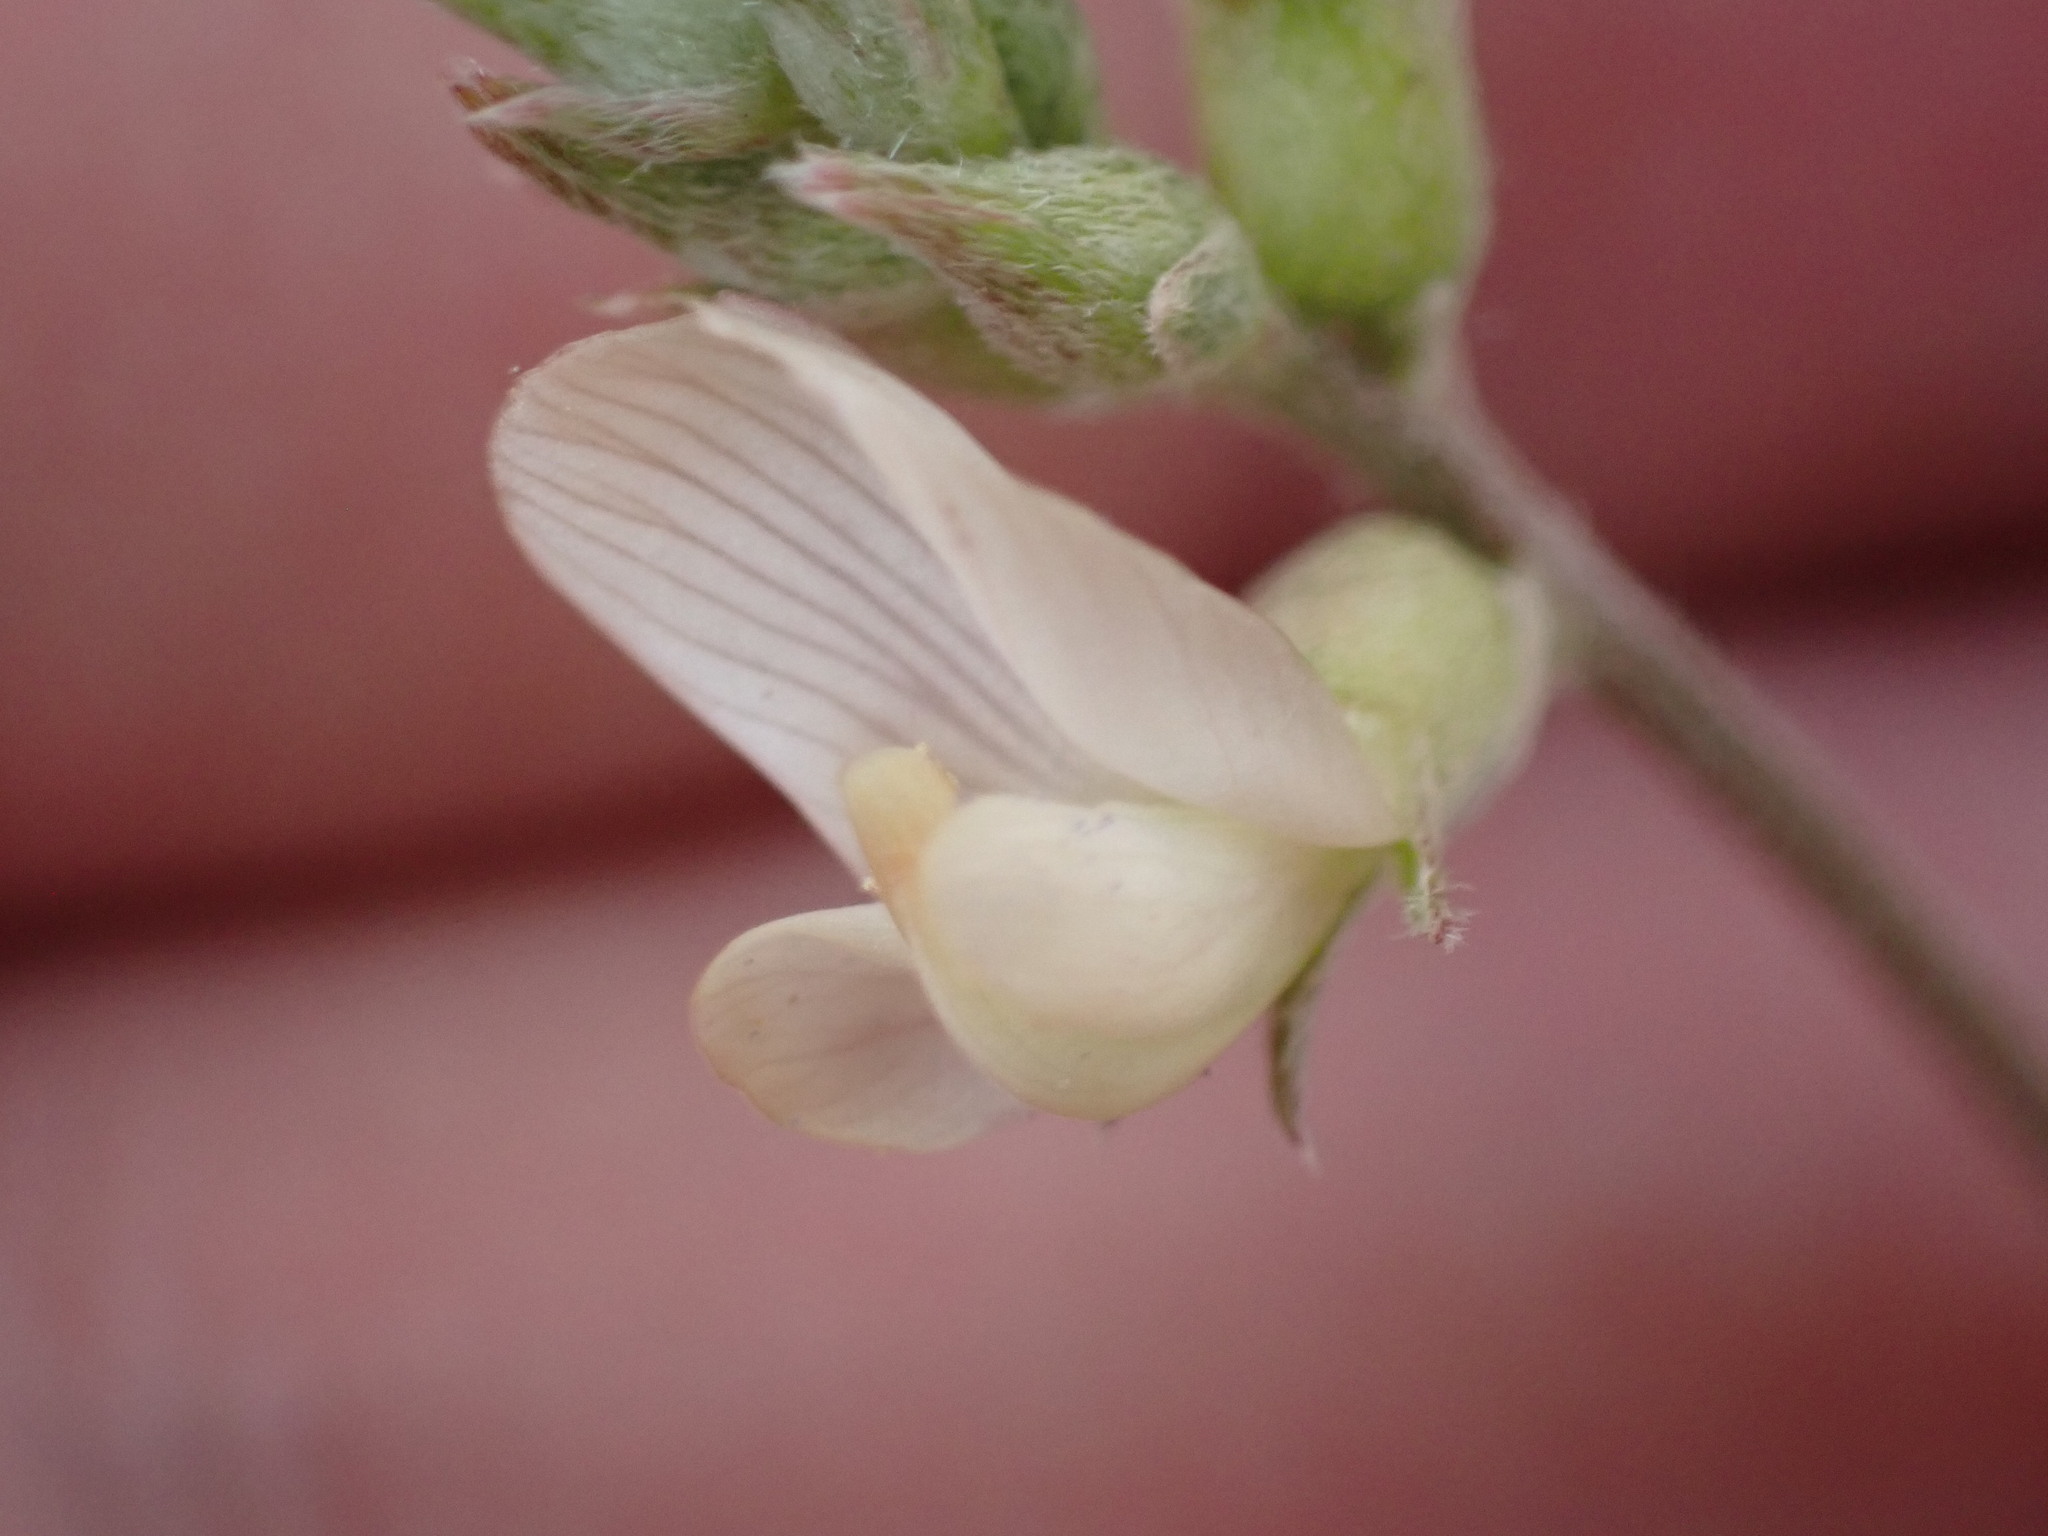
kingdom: Plantae
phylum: Tracheophyta
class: Magnoliopsida
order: Fabales
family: Fabaceae
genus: Astragalus
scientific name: Astragalus humistratus
